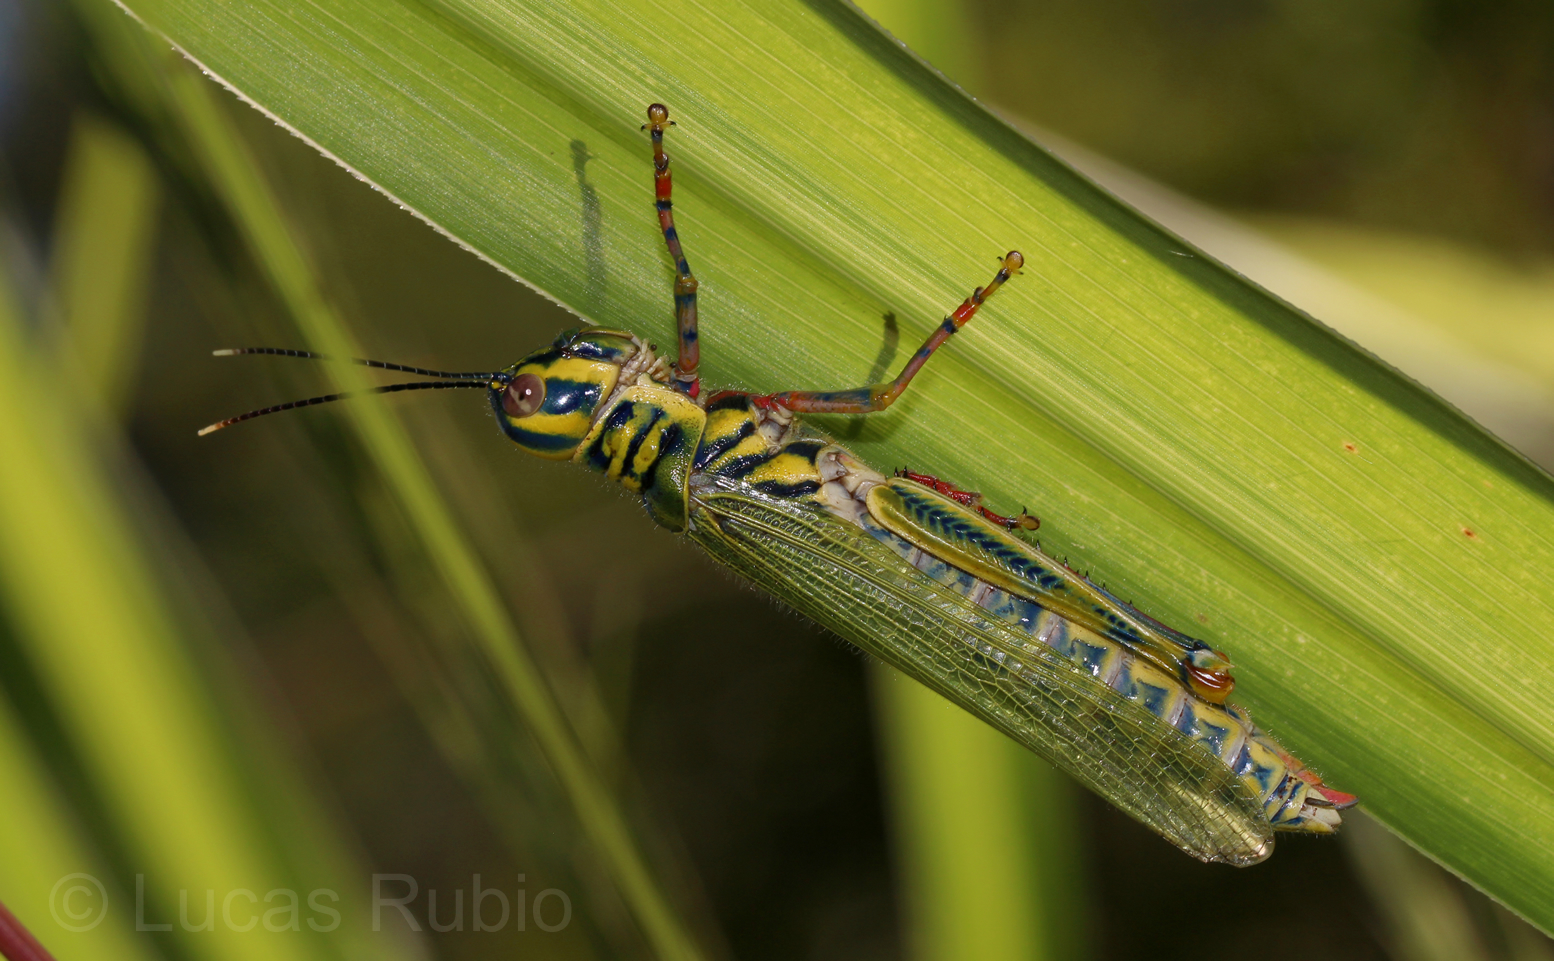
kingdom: Animalia
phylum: Arthropoda
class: Insecta
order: Orthoptera
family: Acrididae
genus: Adimantus
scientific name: Adimantus ornatissimus
